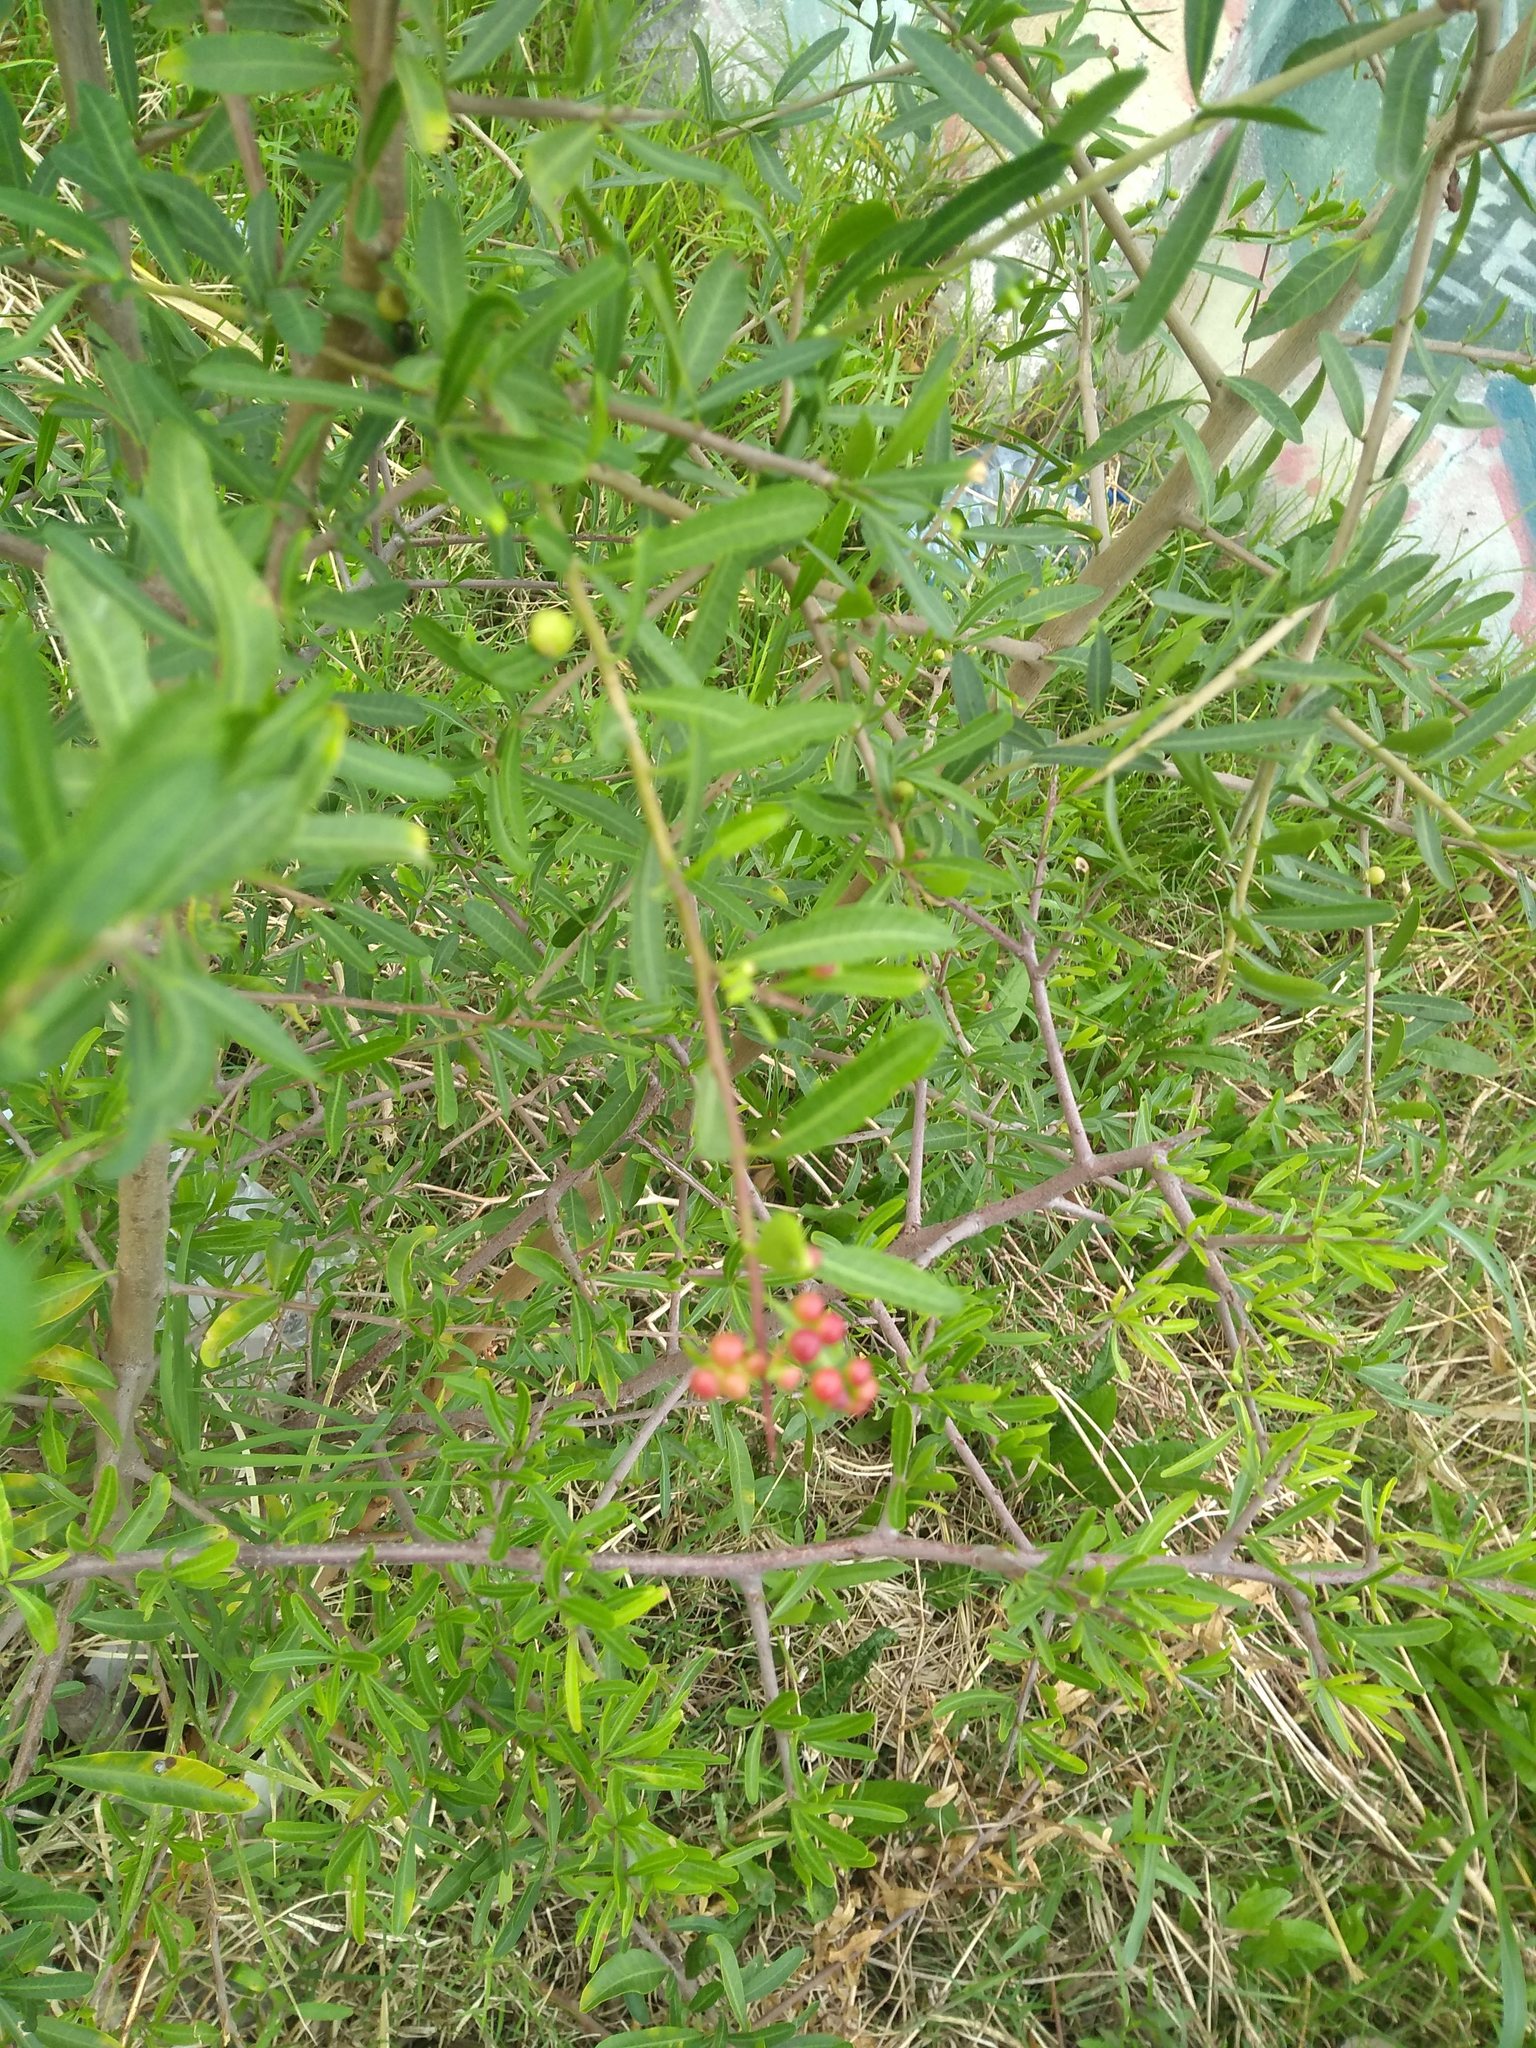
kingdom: Plantae
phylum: Tracheophyta
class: Magnoliopsida
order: Sapindales
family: Anacardiaceae
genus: Schinus
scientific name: Schinus longifolia
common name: Longleaf peppertree
